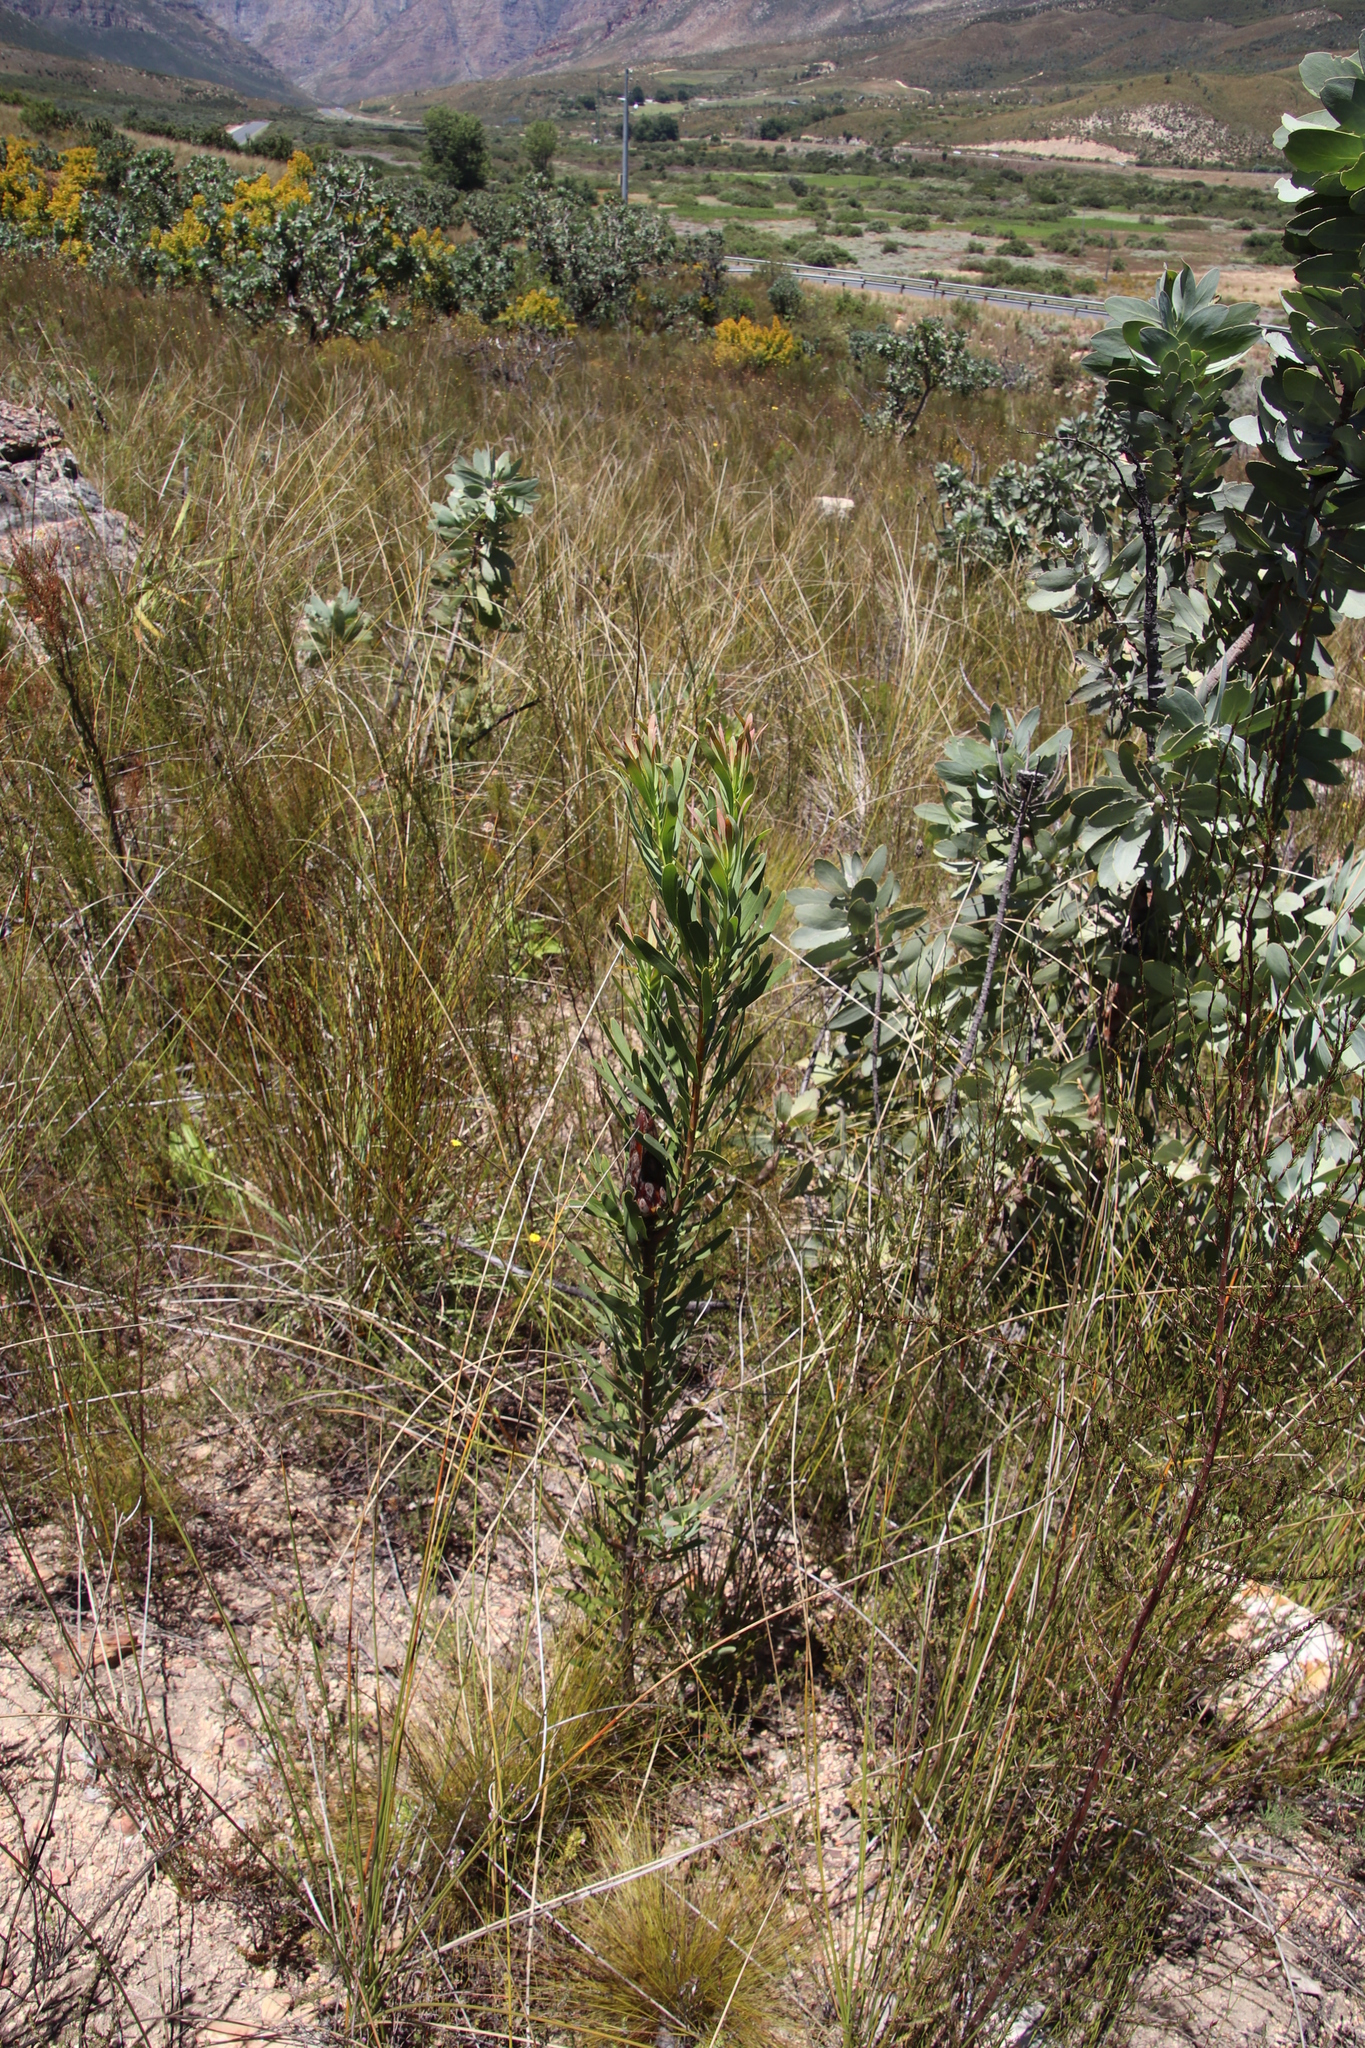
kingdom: Plantae
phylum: Tracheophyta
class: Magnoliopsida
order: Proteales
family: Proteaceae
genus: Protea
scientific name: Protea repens
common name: Sugarbush
